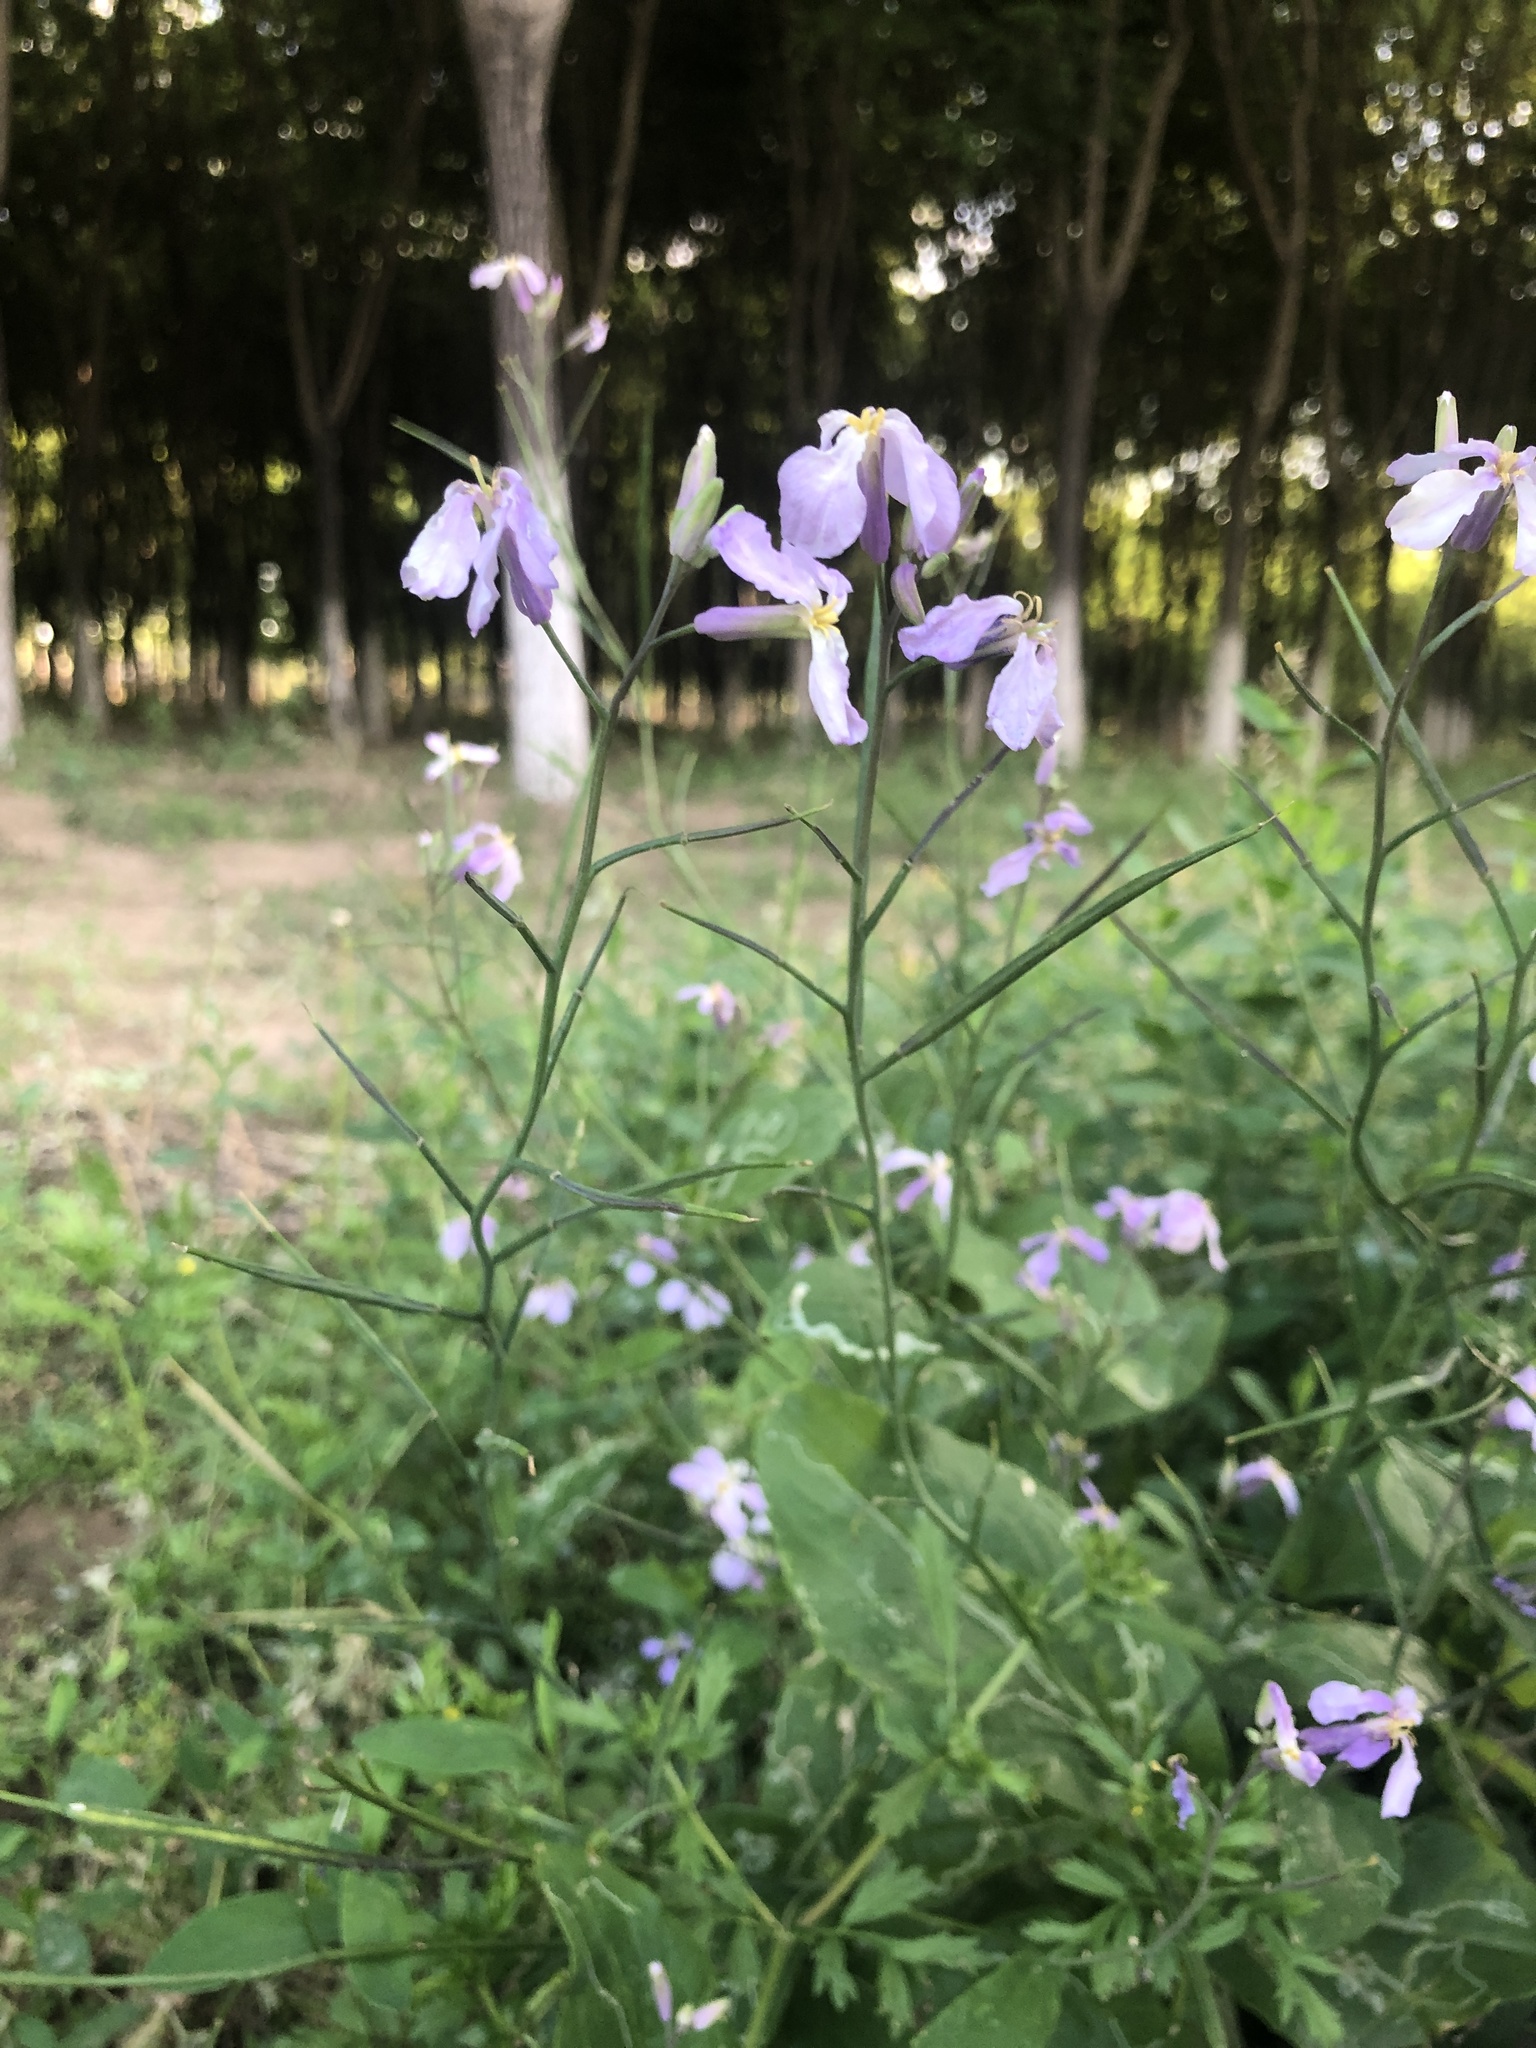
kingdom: Plantae
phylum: Tracheophyta
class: Magnoliopsida
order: Brassicales
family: Brassicaceae
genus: Orychophragmus
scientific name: Orychophragmus violaceus
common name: Mustard
